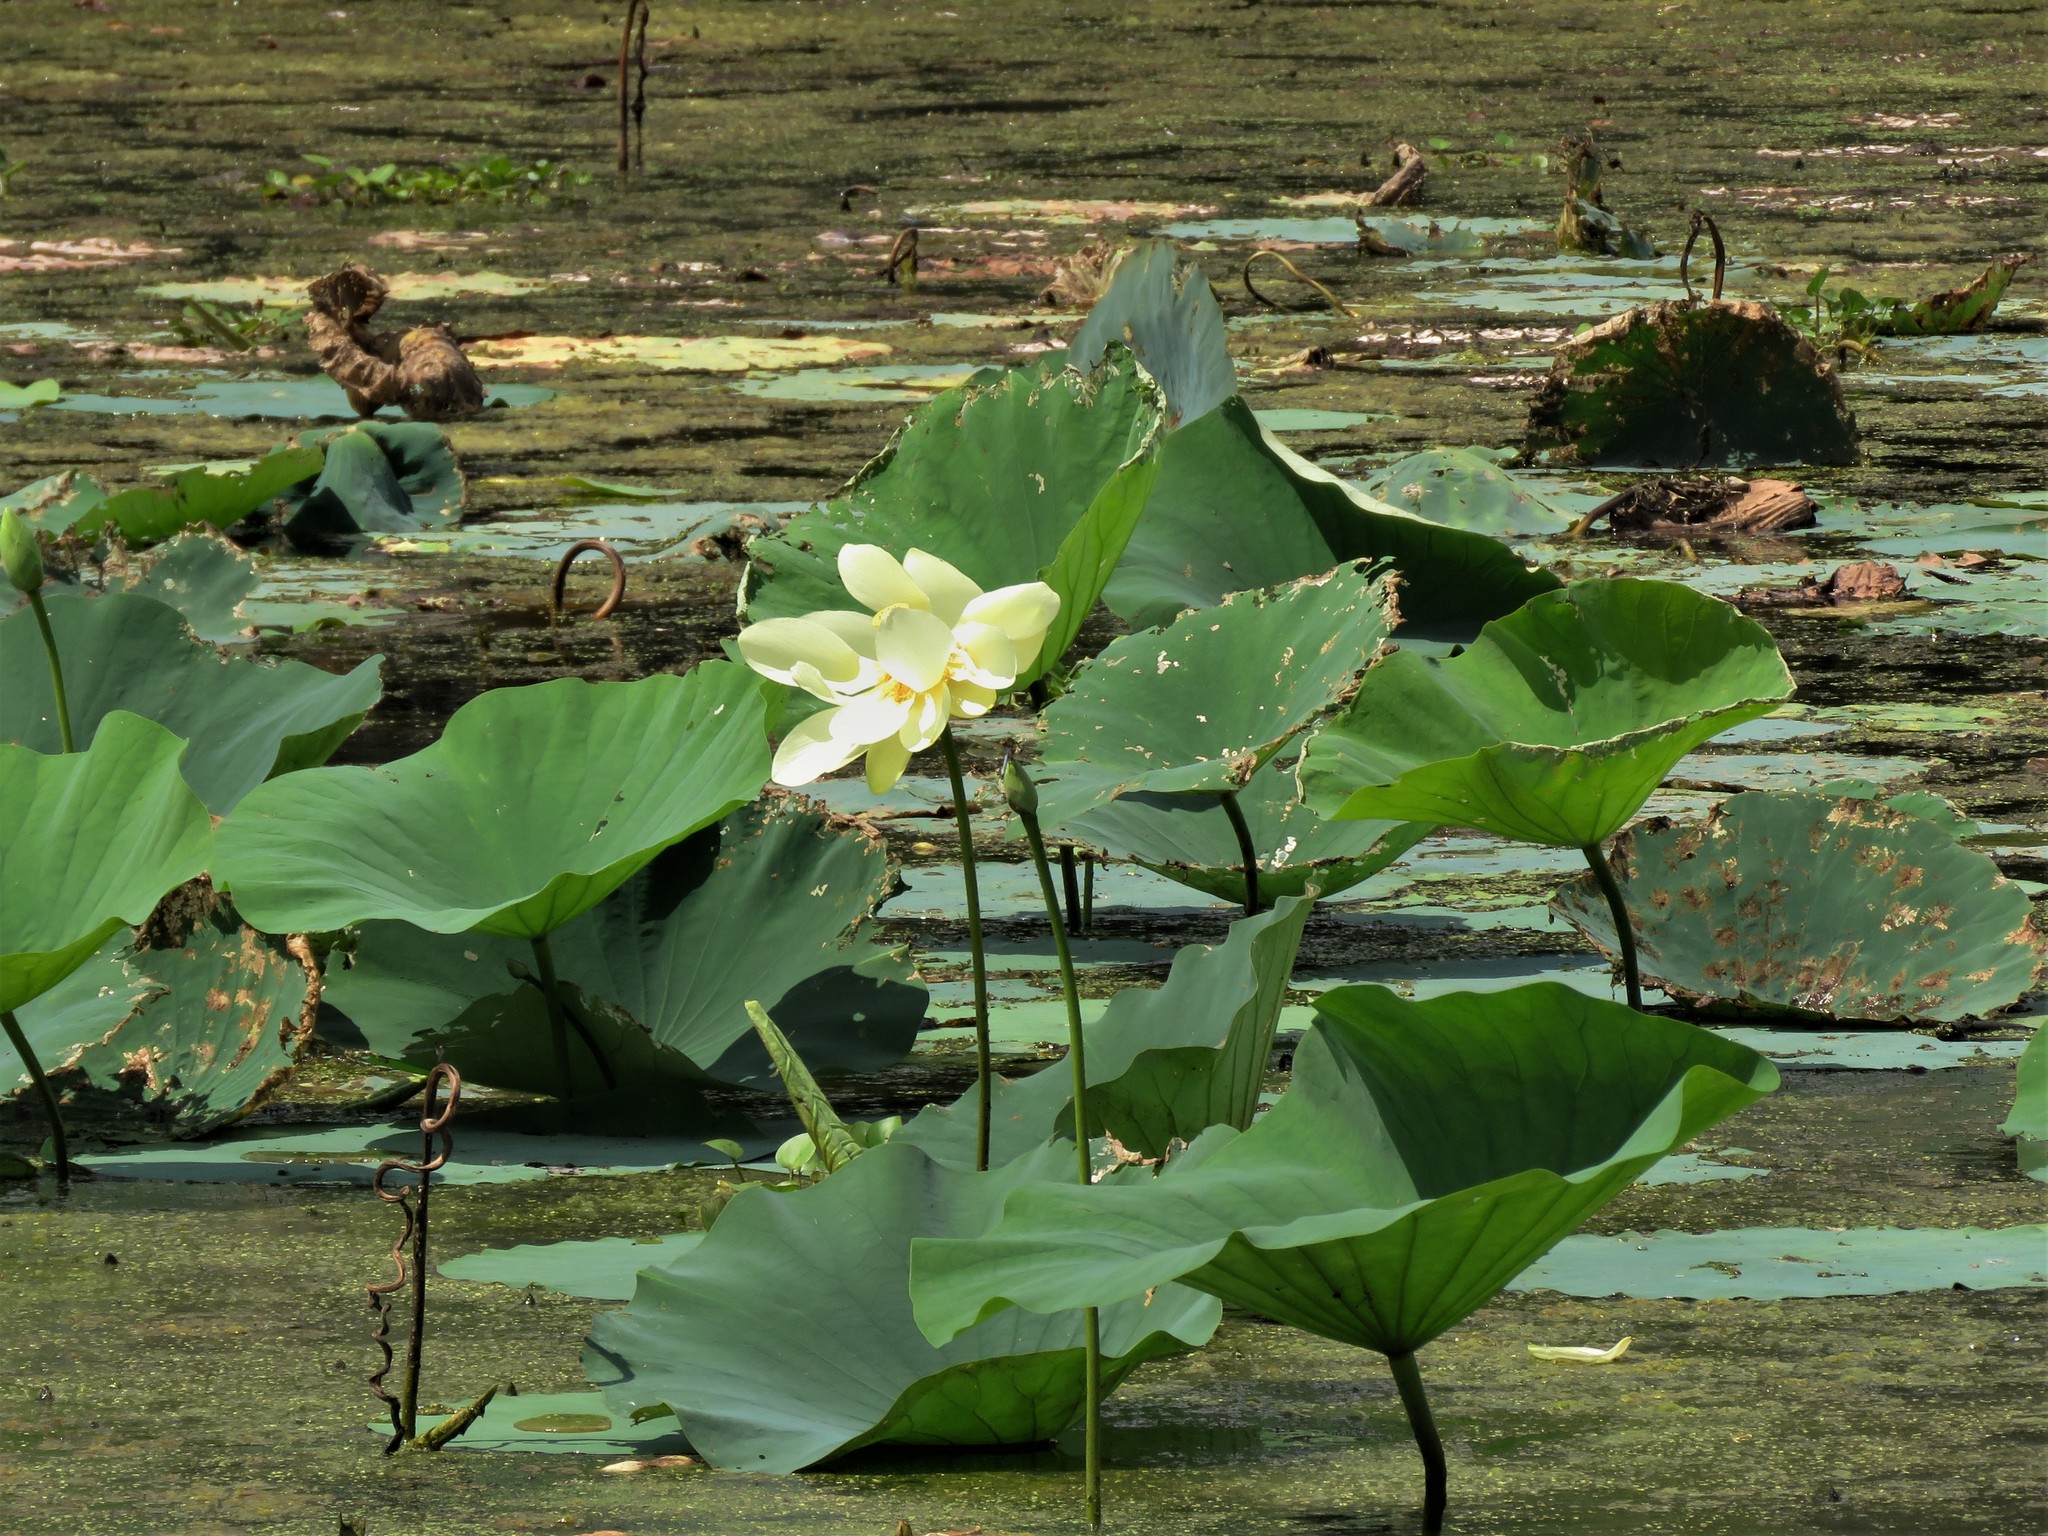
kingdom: Plantae
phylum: Tracheophyta
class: Magnoliopsida
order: Proteales
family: Nelumbonaceae
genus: Nelumbo
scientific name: Nelumbo lutea
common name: American lotus
